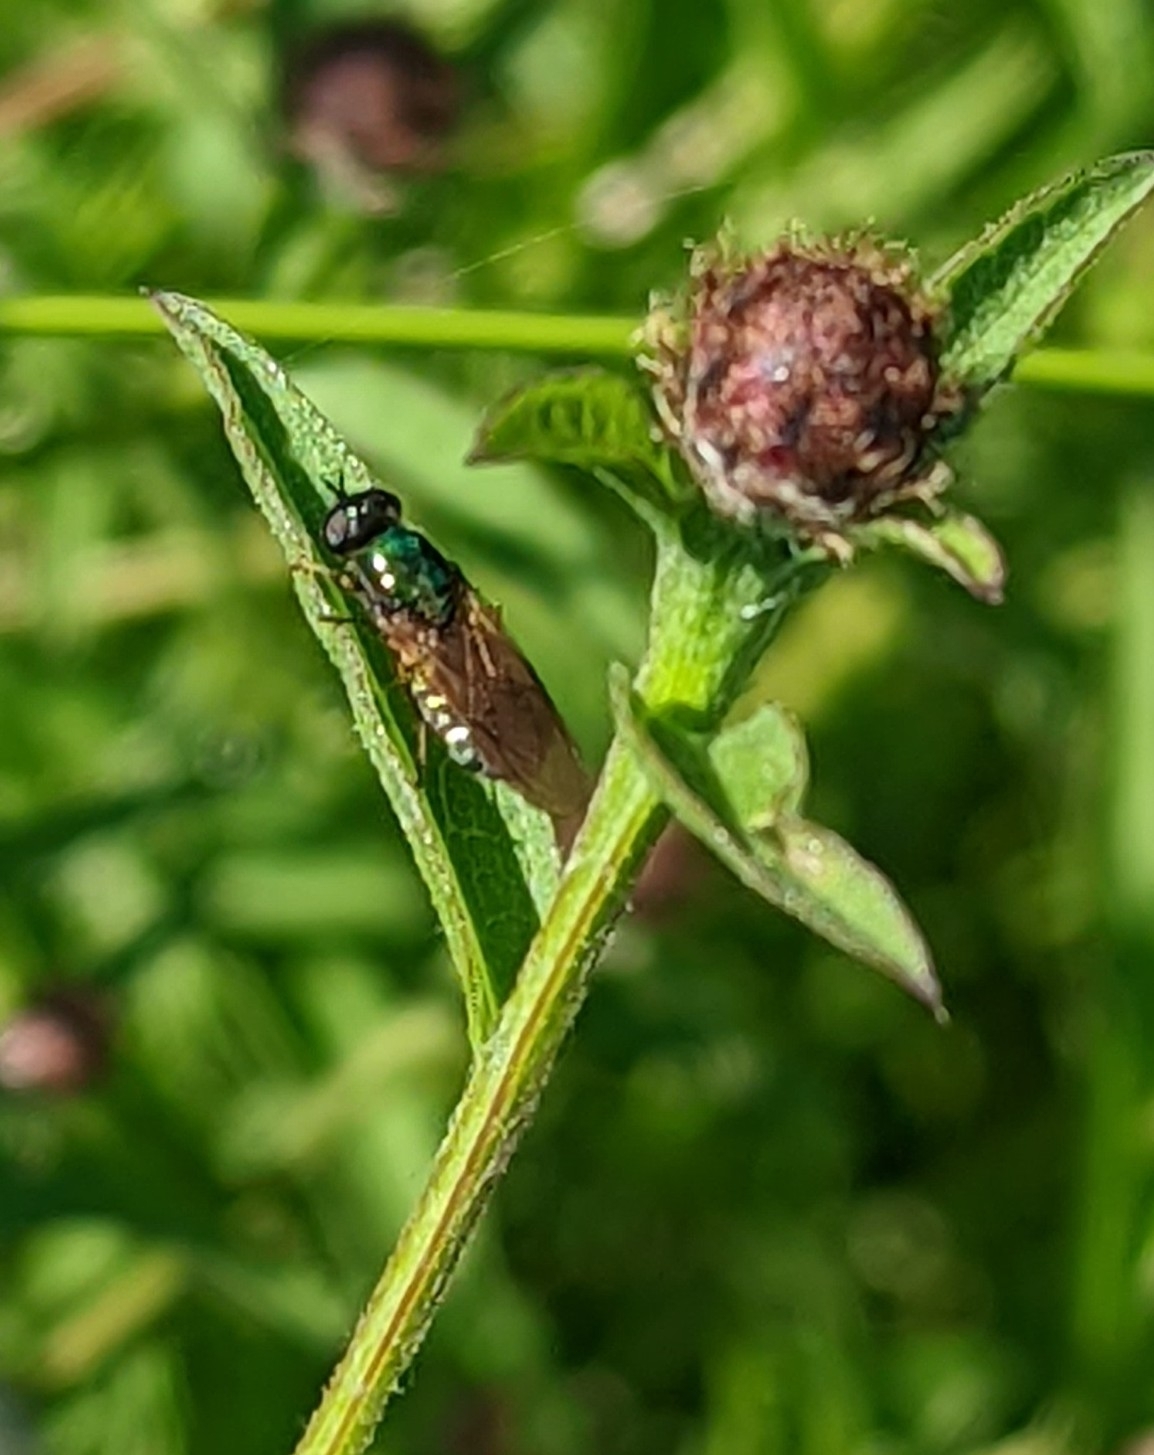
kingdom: Animalia
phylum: Arthropoda
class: Insecta
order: Diptera
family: Stratiomyidae
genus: Chloromyia
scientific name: Chloromyia formosa
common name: Soldier fly
